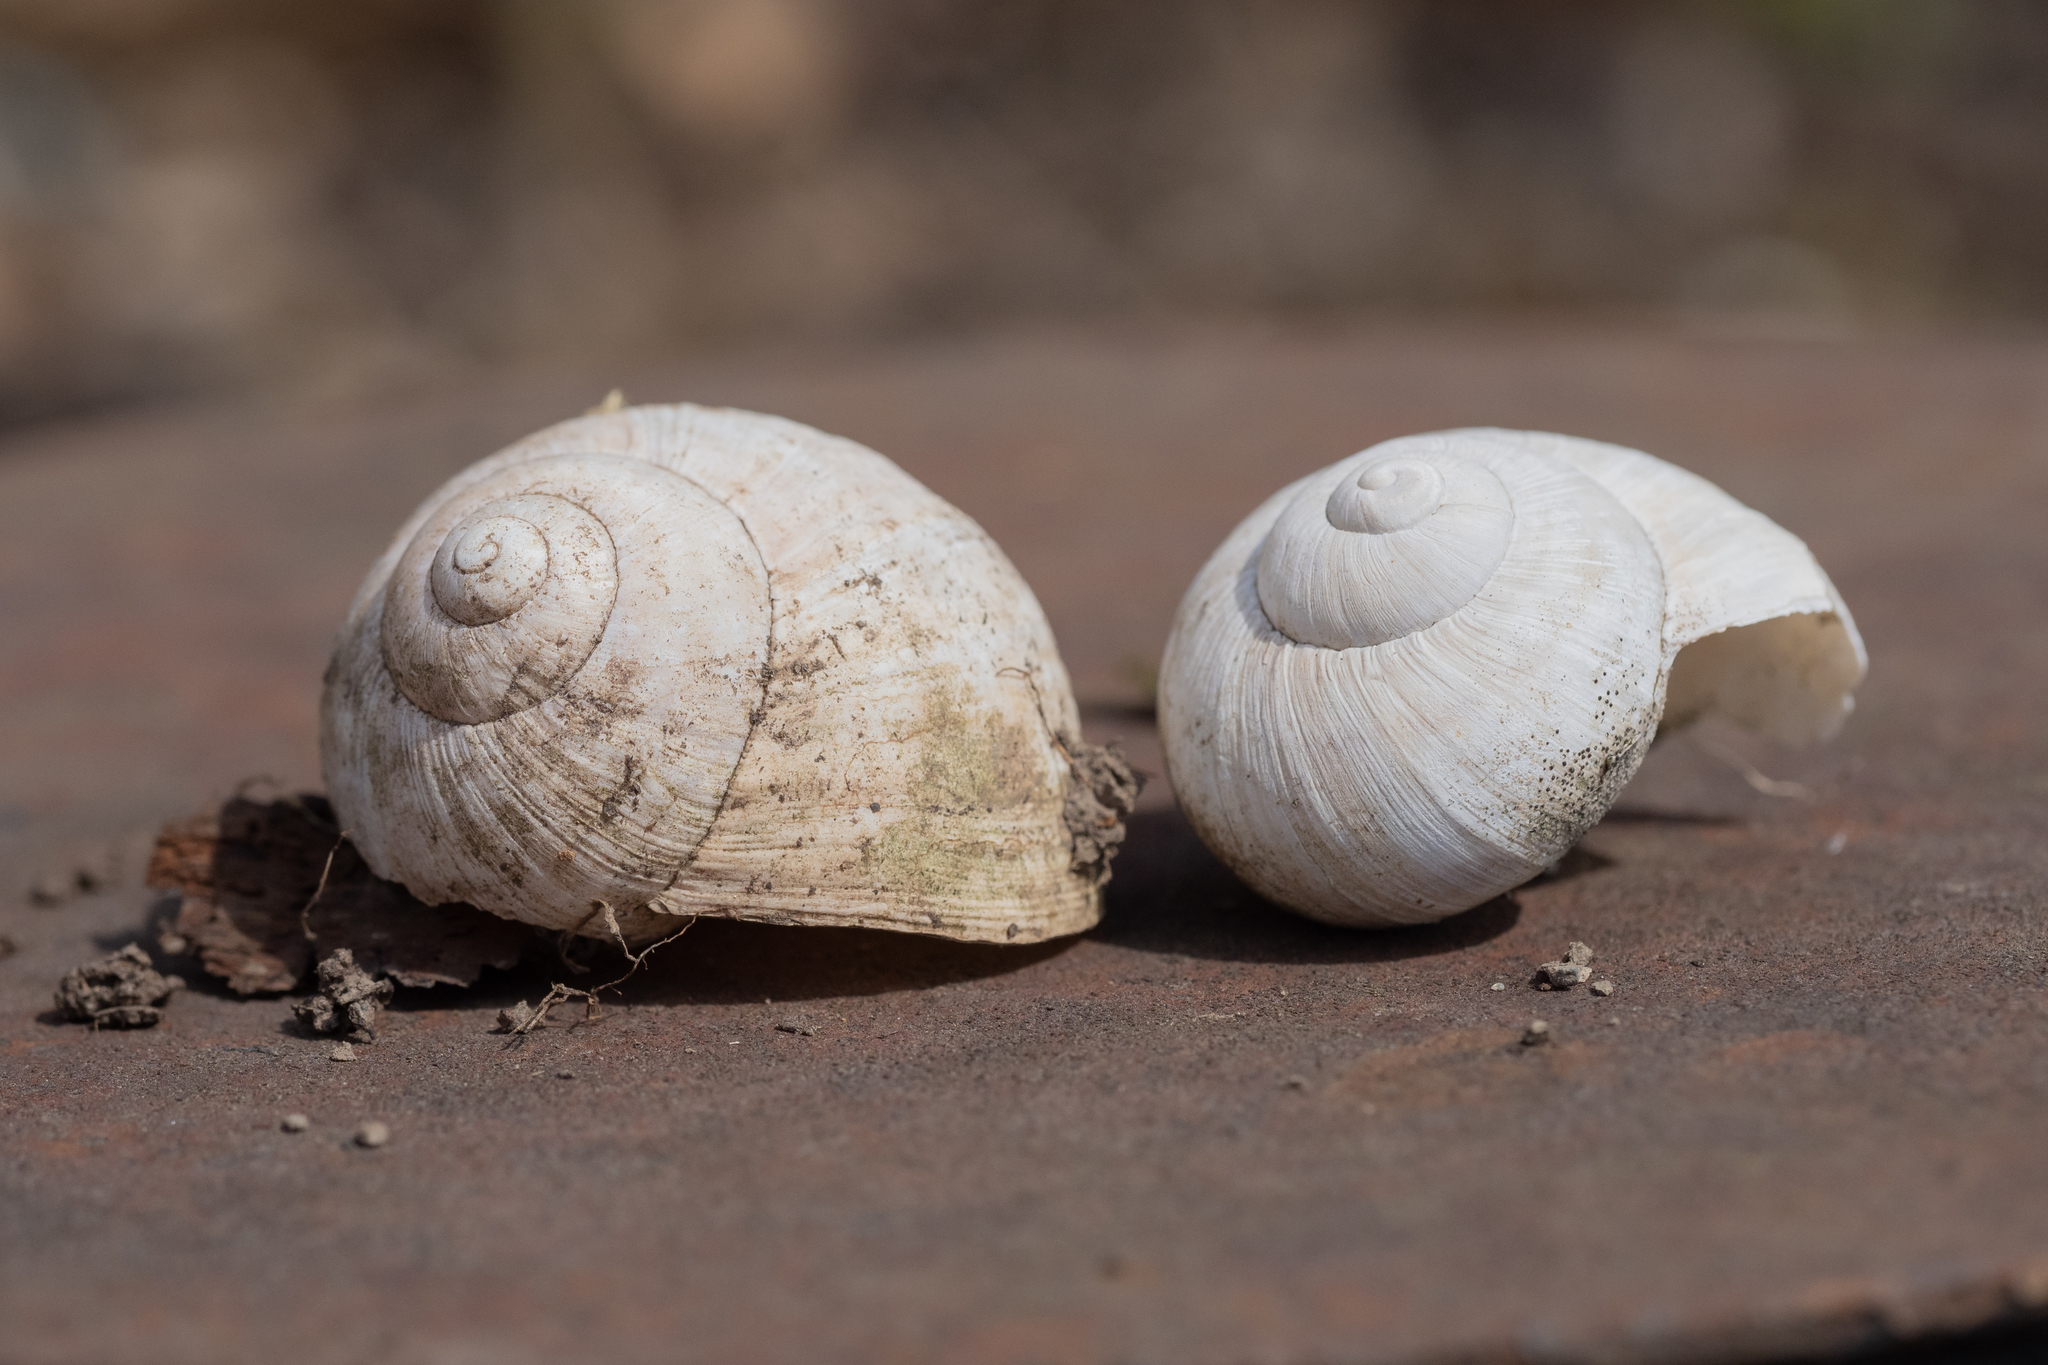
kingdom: Animalia
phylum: Mollusca
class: Gastropoda
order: Stylommatophora
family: Helicidae
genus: Helix
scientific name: Helix pomatia
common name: Roman snail
